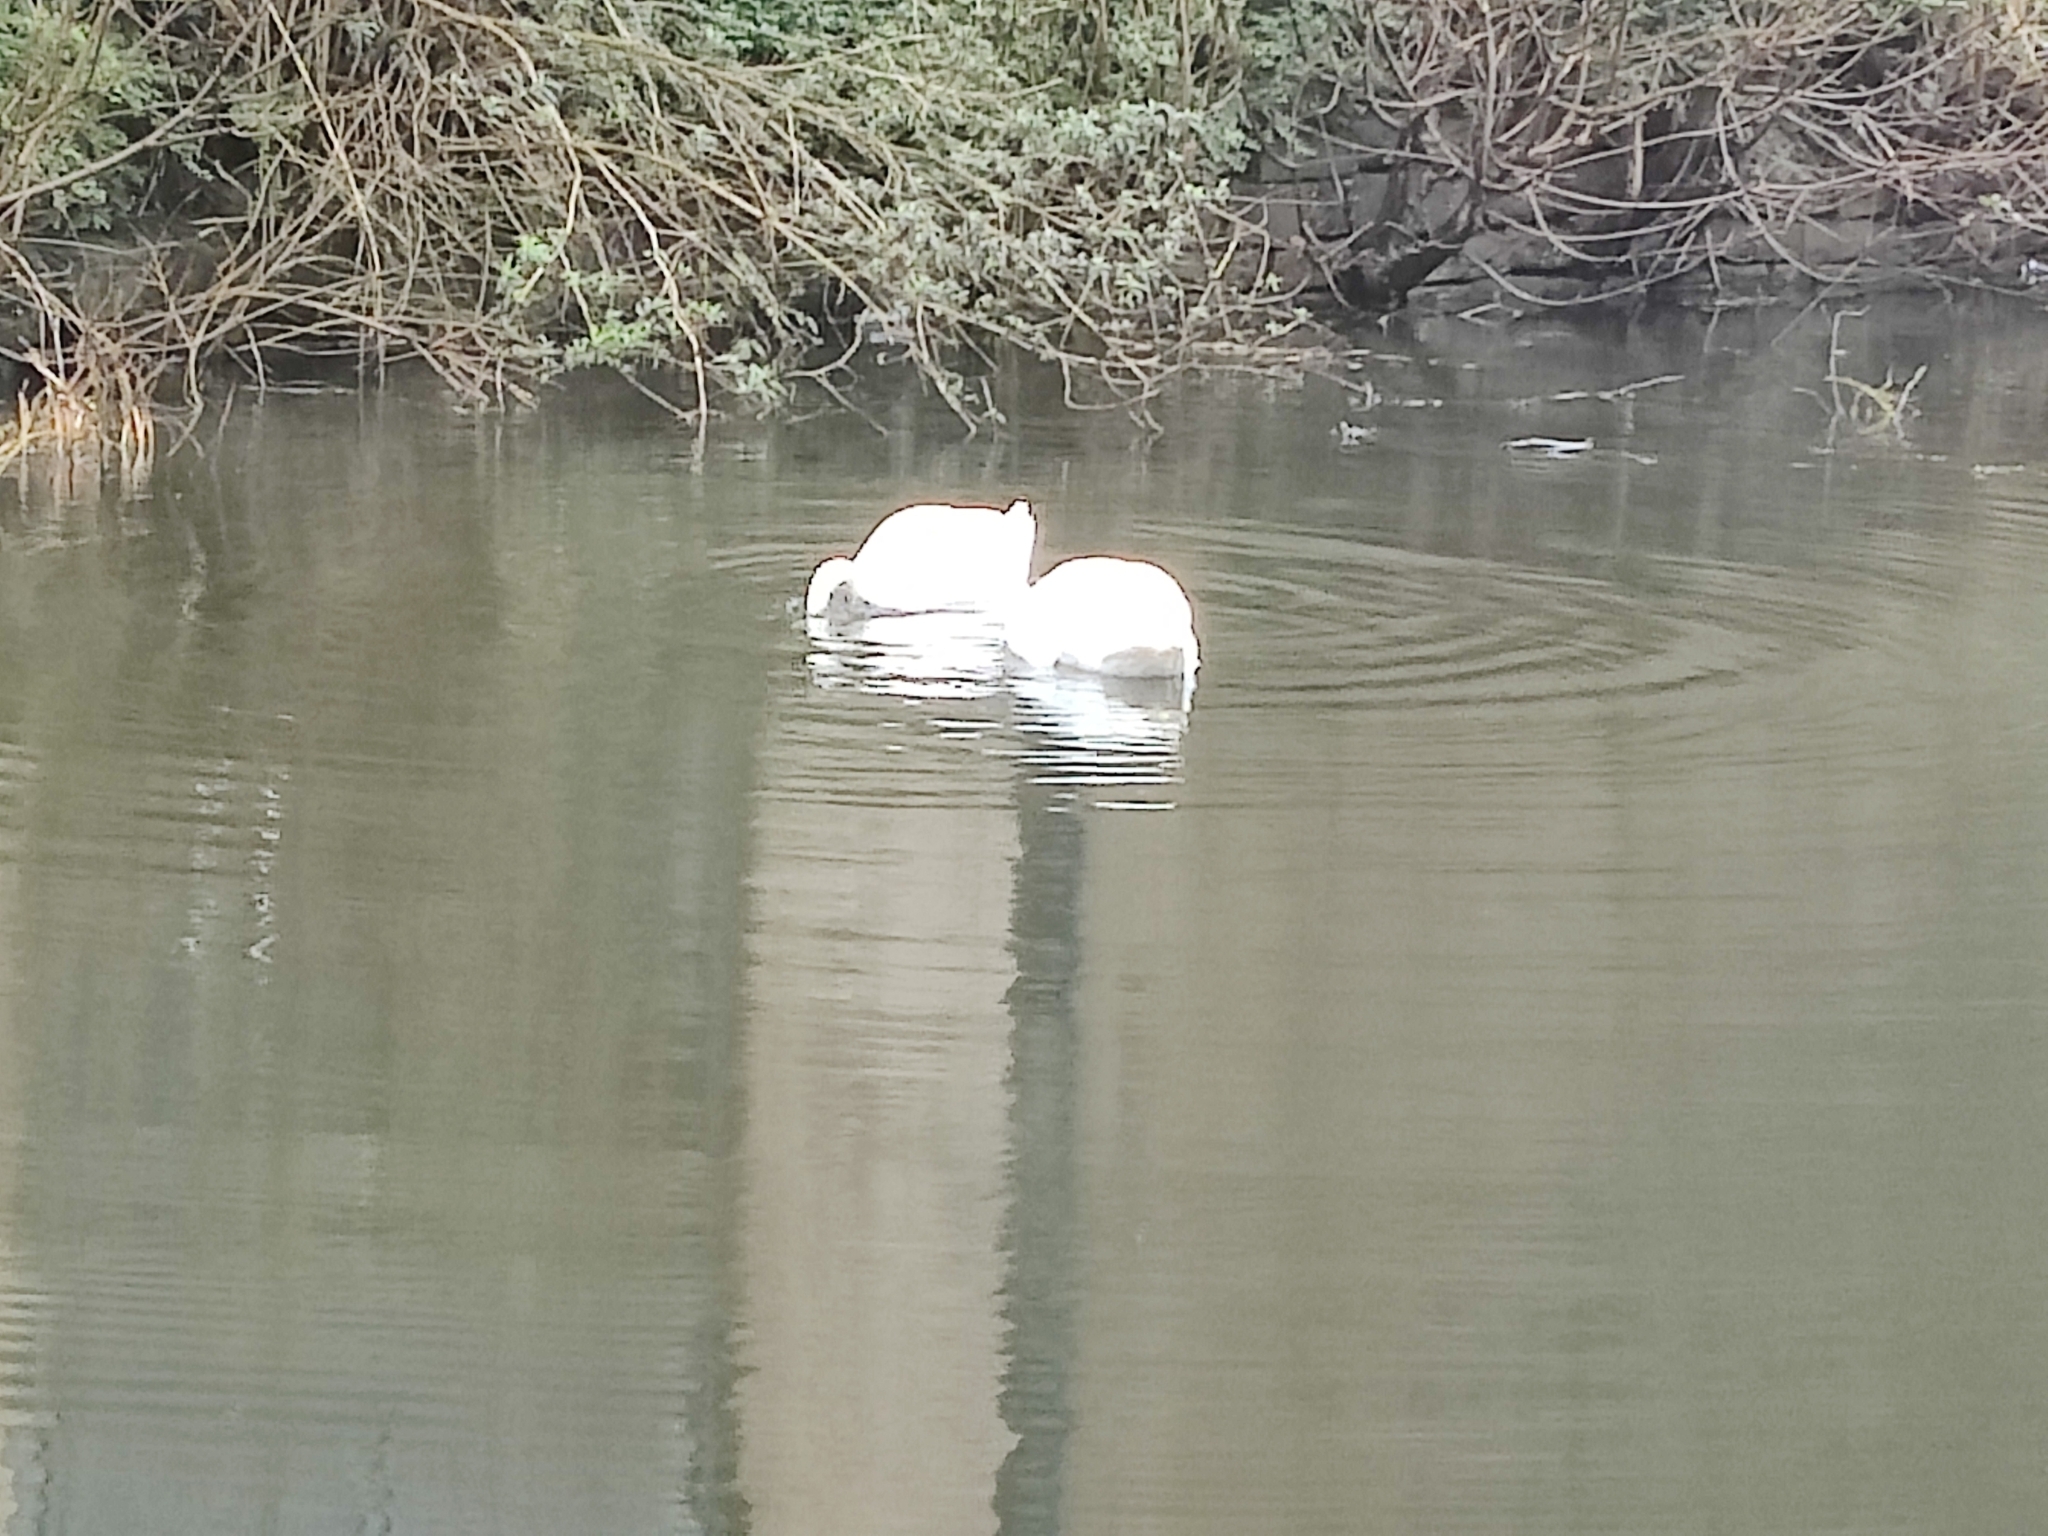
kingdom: Animalia
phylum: Chordata
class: Aves
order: Anseriformes
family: Anatidae
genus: Cygnus
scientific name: Cygnus olor
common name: Mute swan
